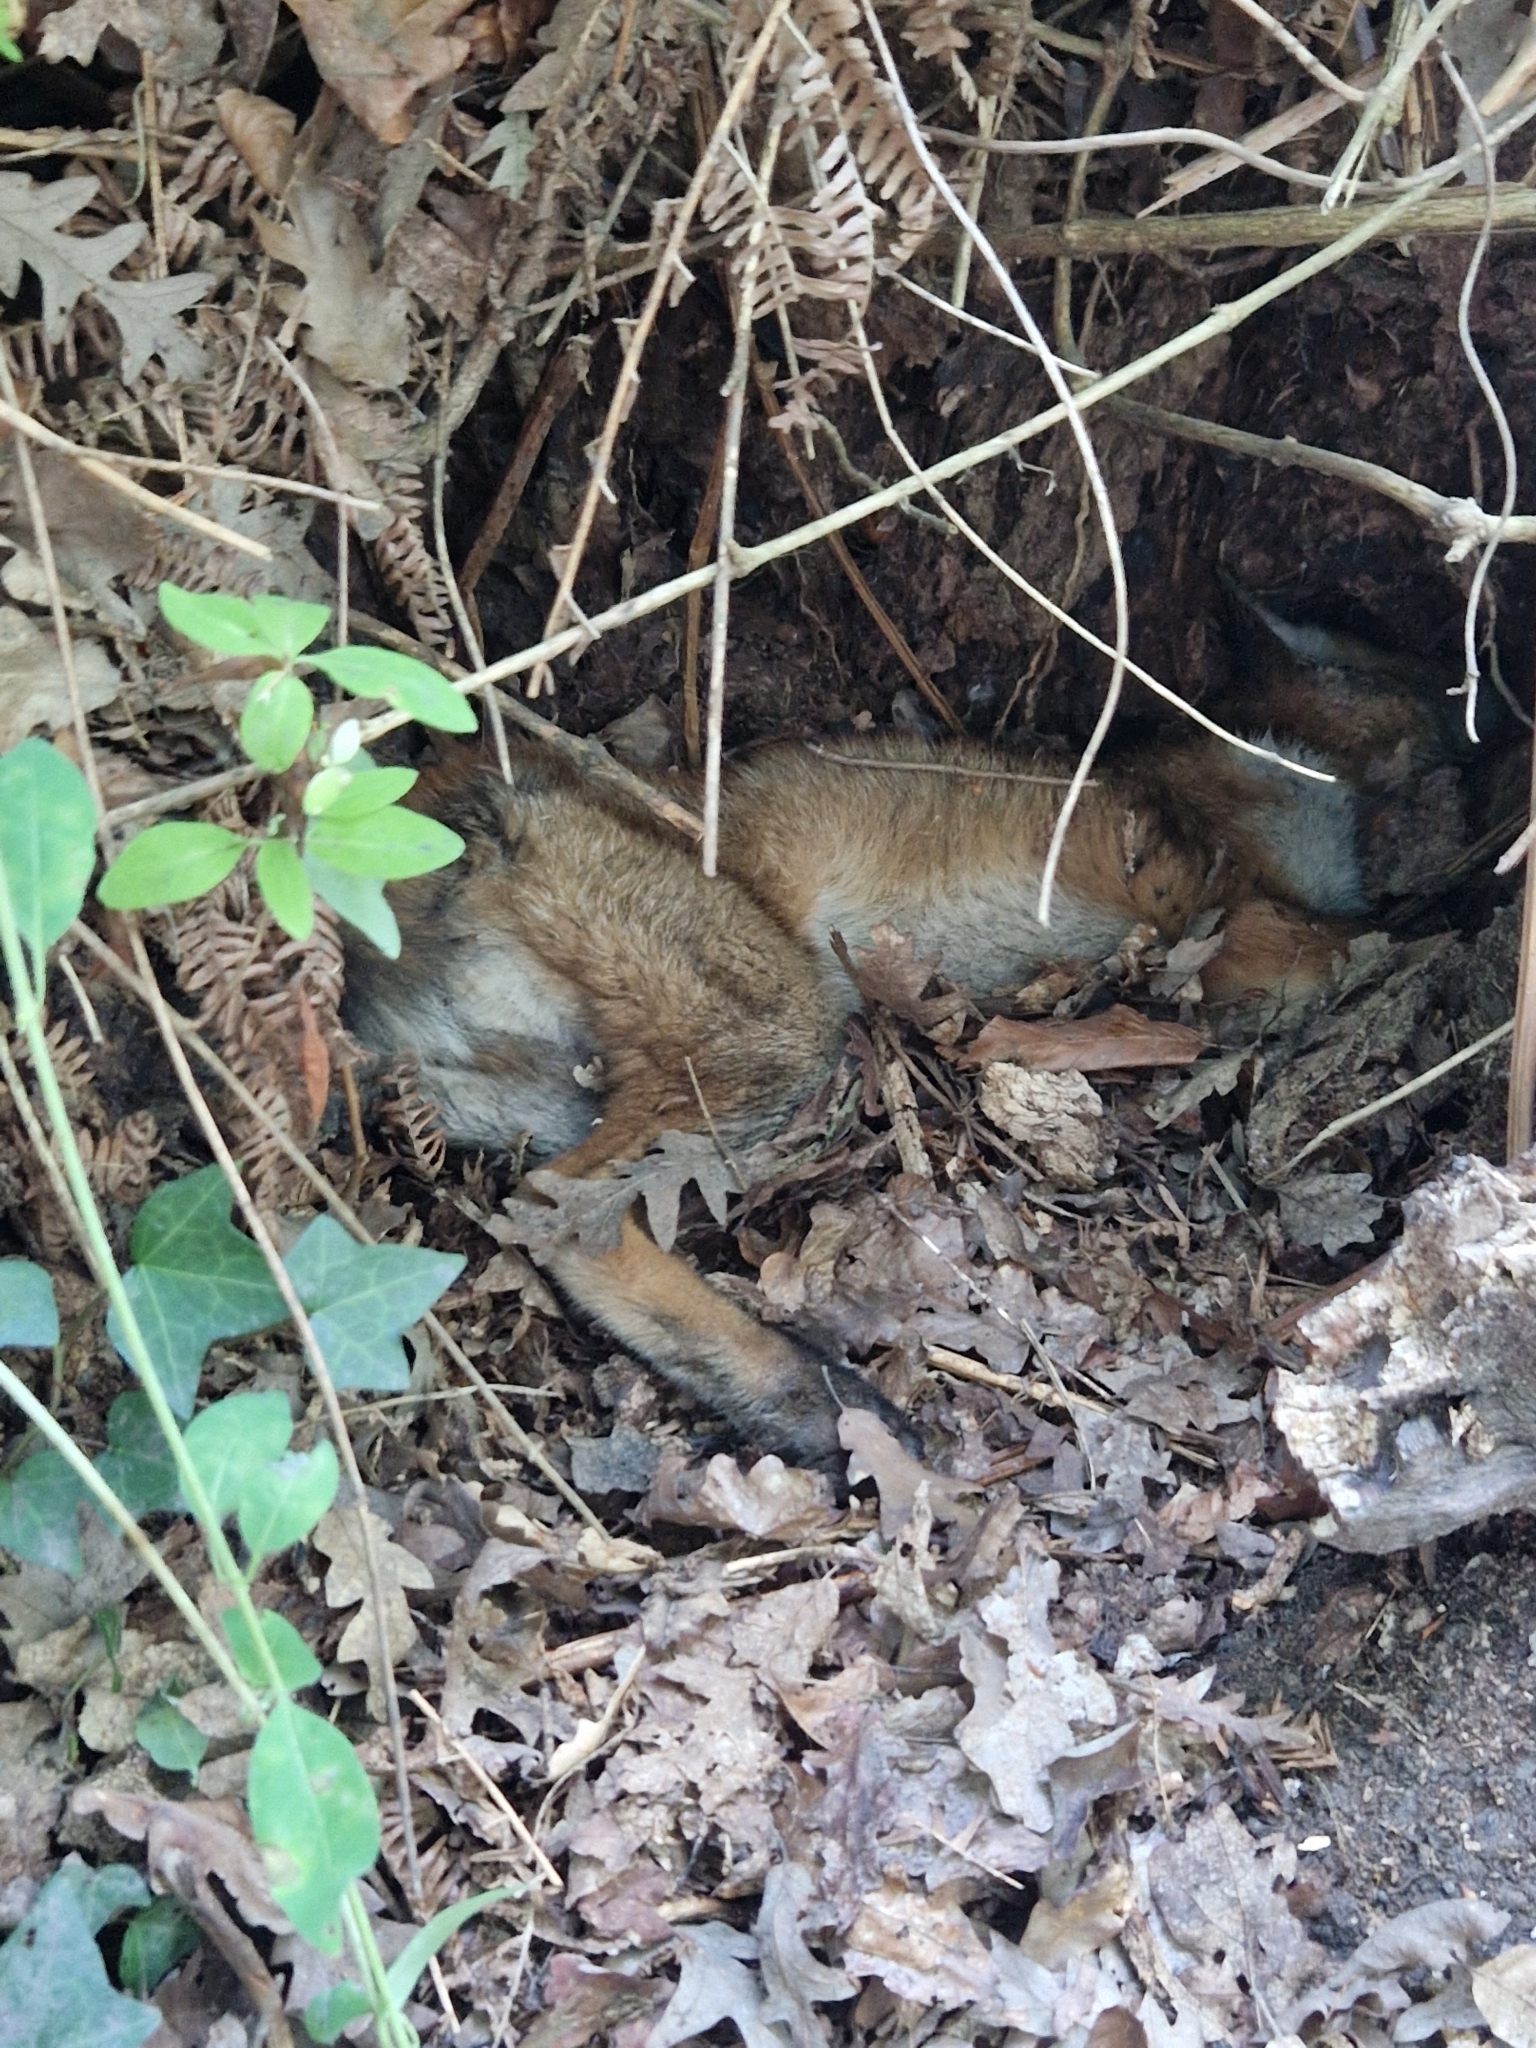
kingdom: Animalia
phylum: Chordata
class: Mammalia
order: Carnivora
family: Canidae
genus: Vulpes
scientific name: Vulpes vulpes
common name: Red fox
